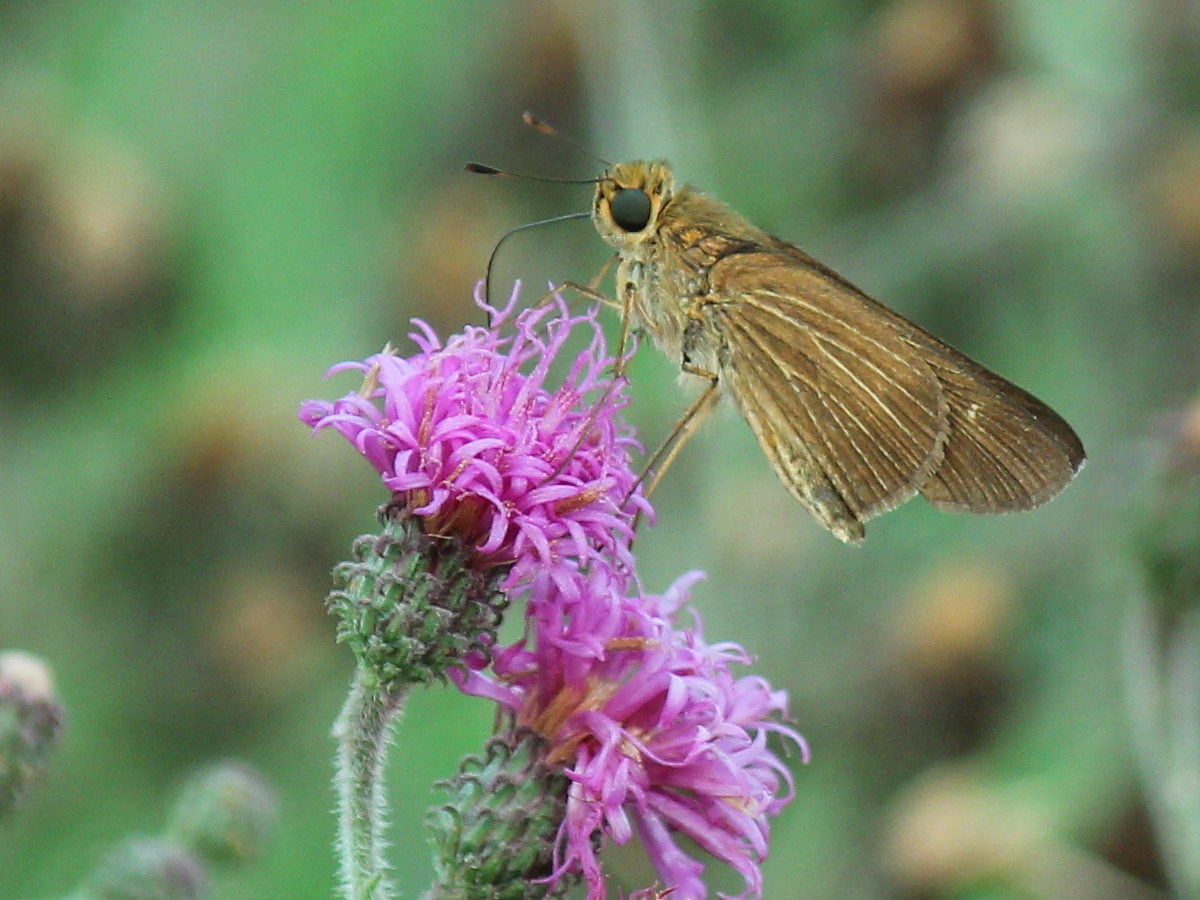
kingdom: Animalia
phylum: Arthropoda
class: Insecta
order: Lepidoptera
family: Hesperiidae
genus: Panoquina
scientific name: Panoquina ocola
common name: Ocola skipper
